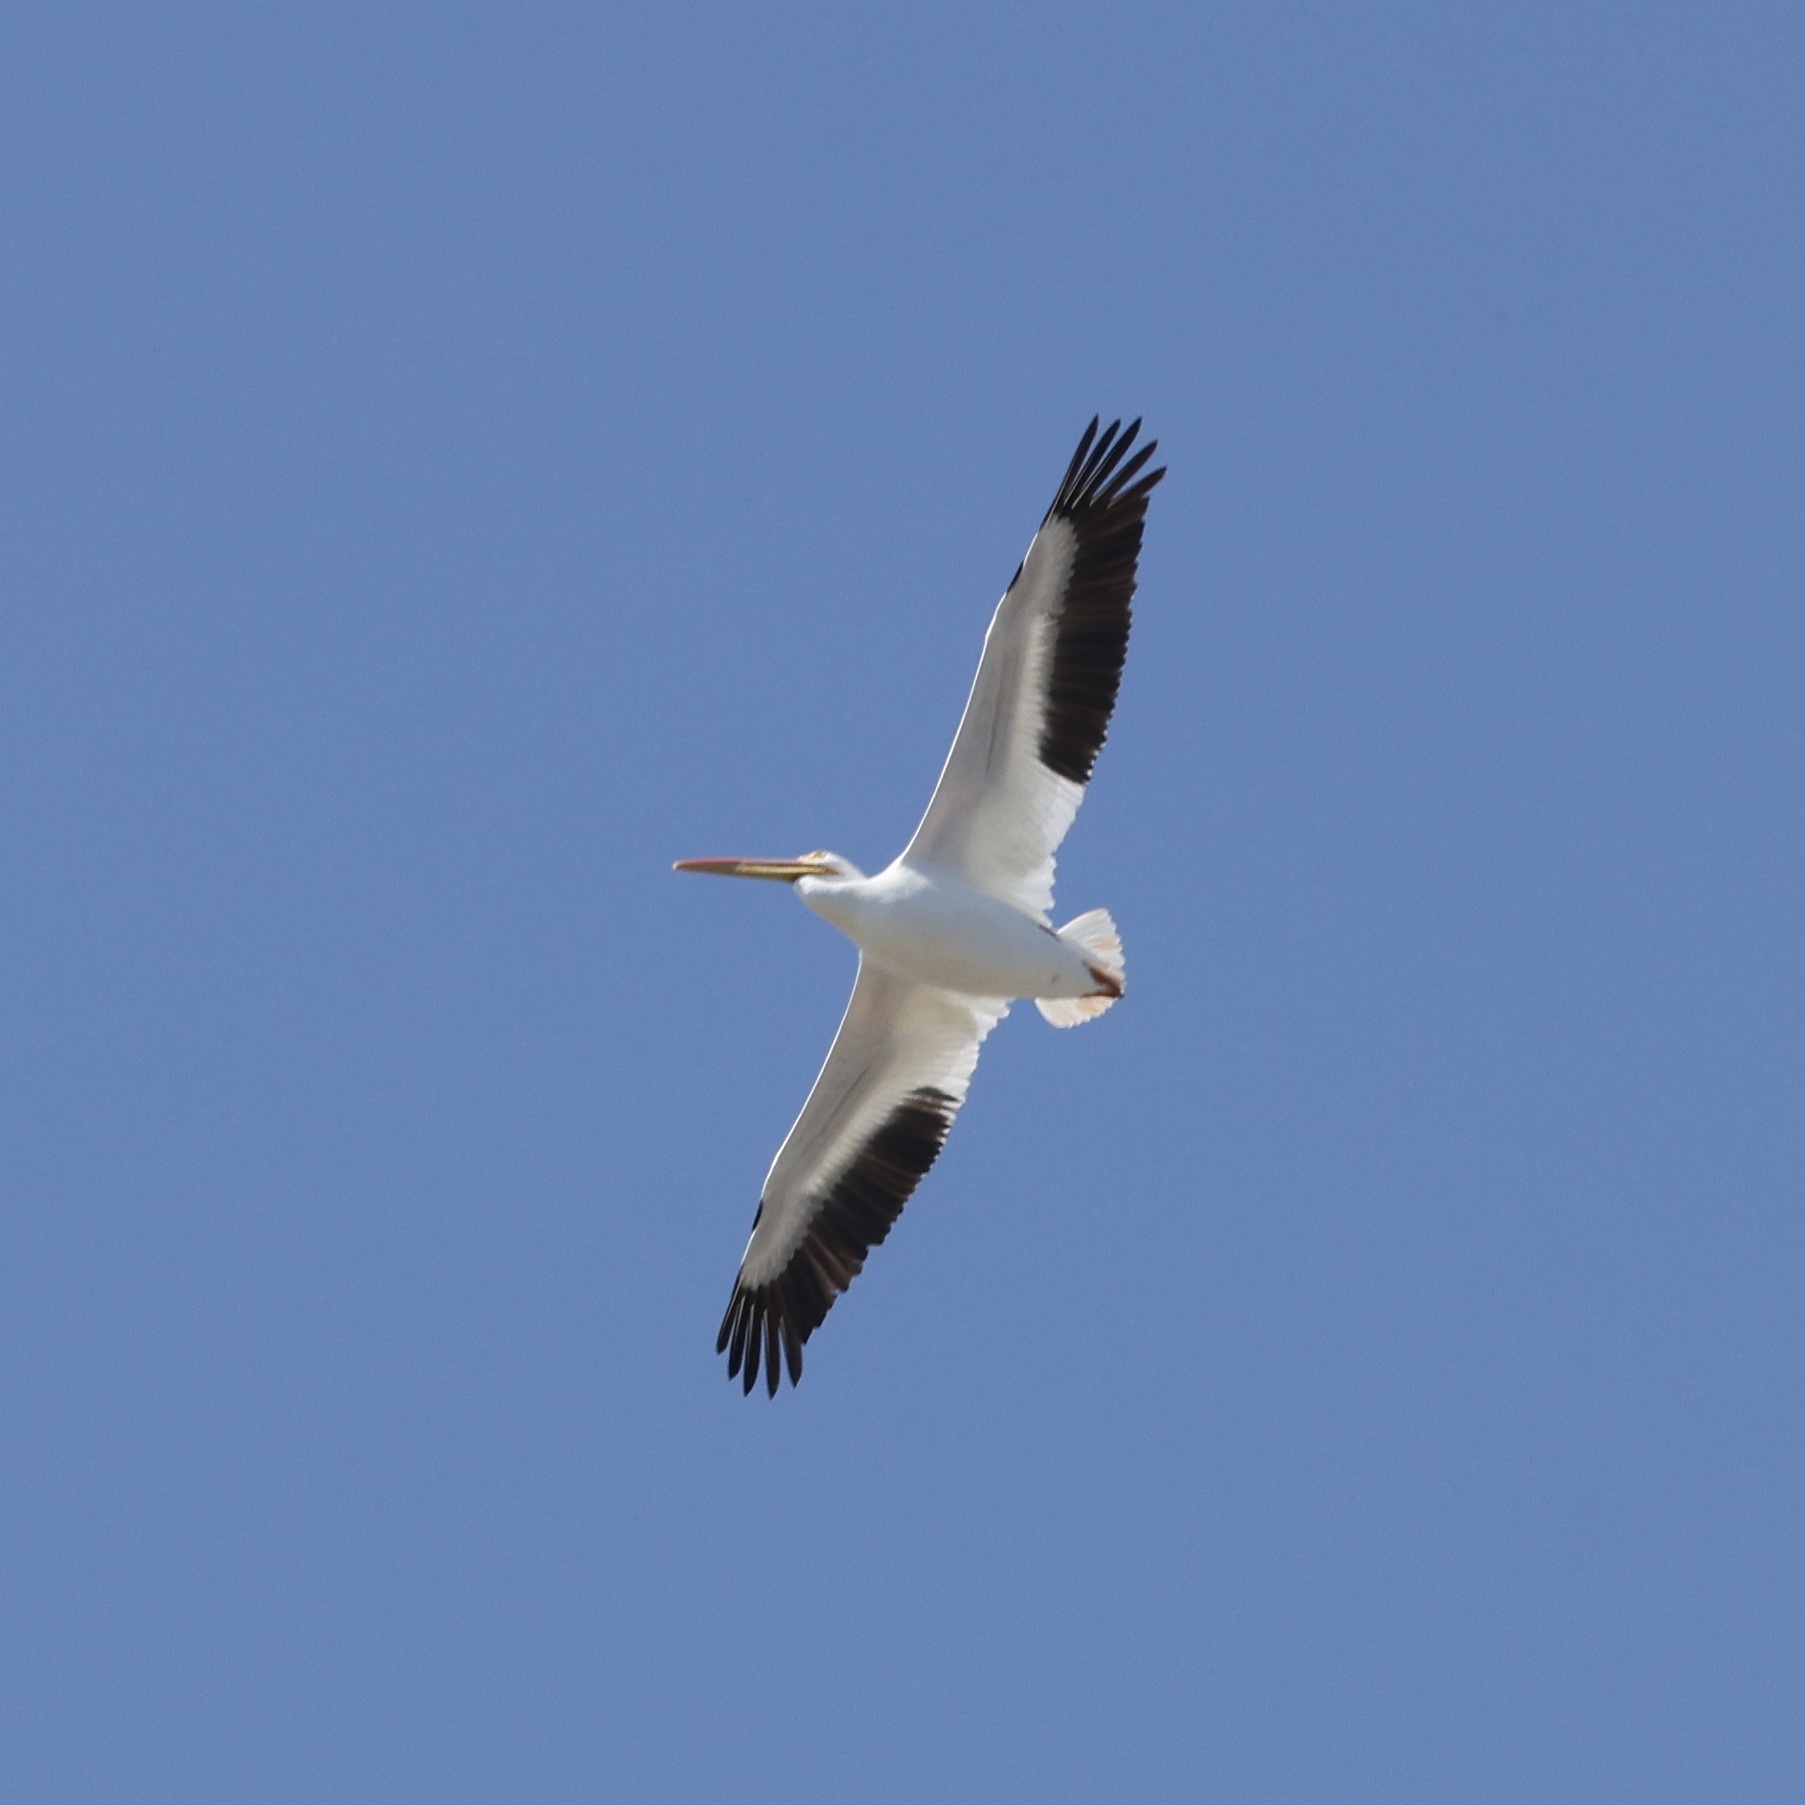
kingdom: Animalia
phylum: Chordata
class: Aves
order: Pelecaniformes
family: Pelecanidae
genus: Pelecanus
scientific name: Pelecanus erythrorhynchos
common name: American white pelican
